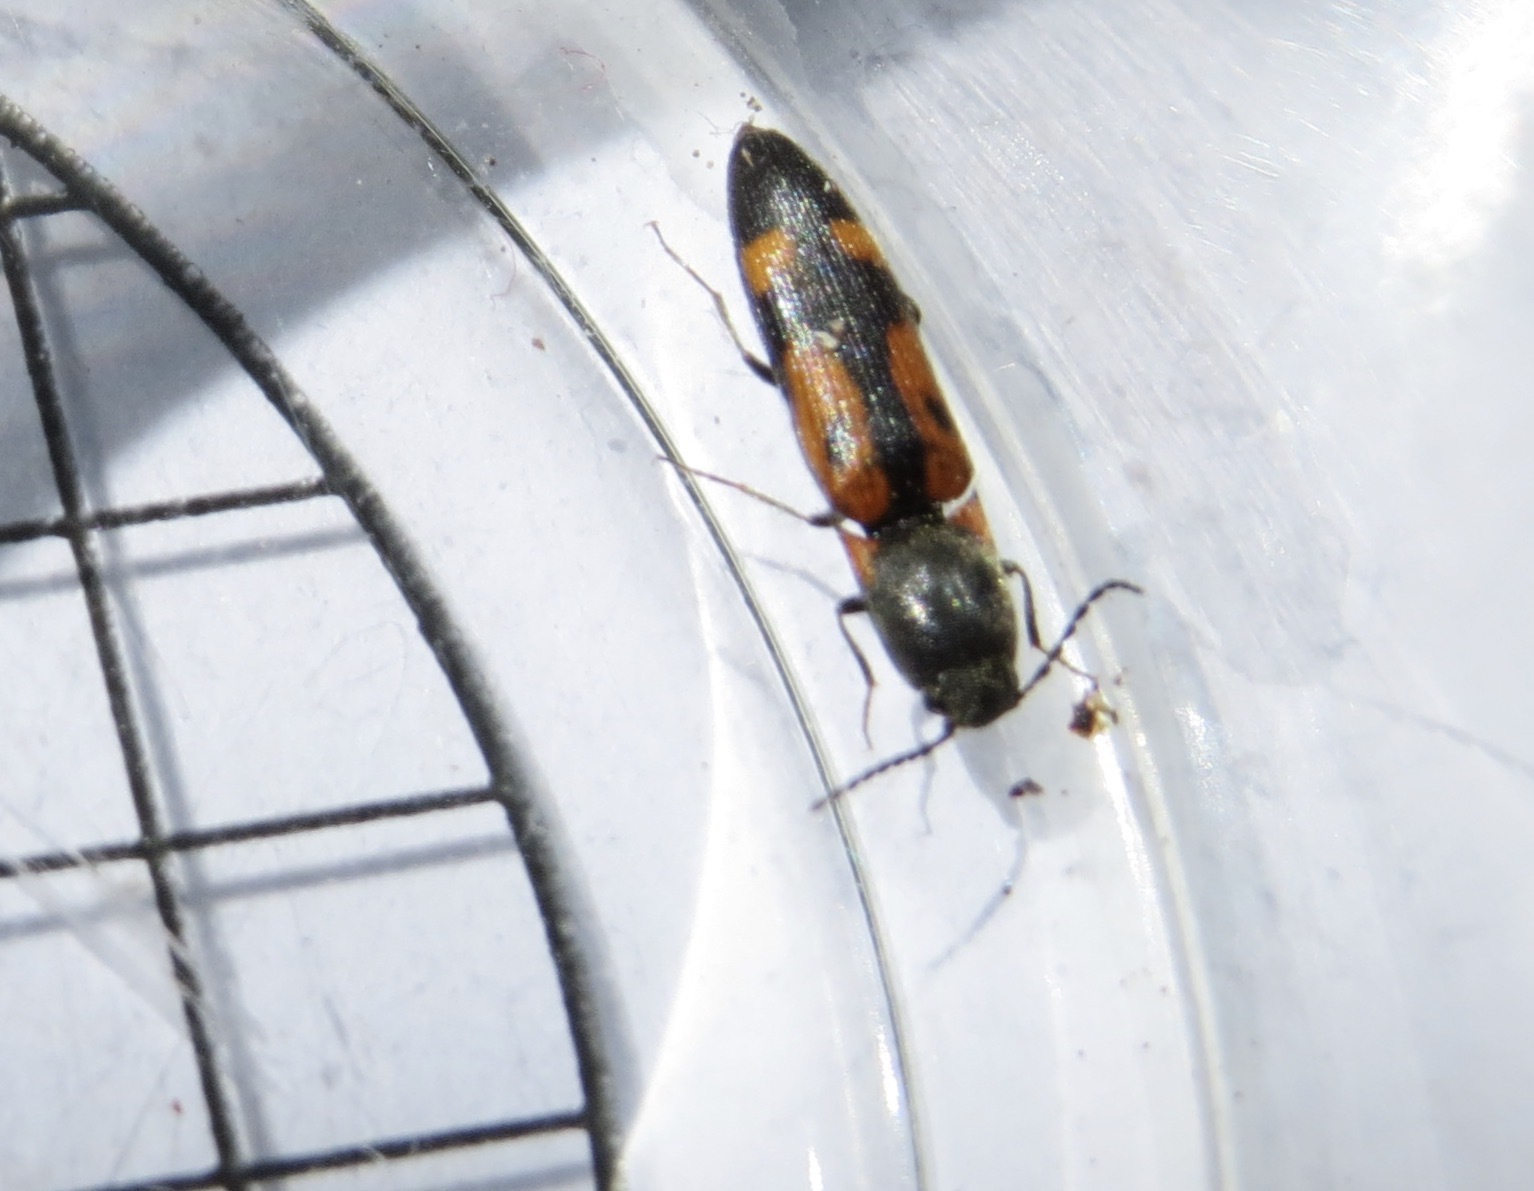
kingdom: Animalia
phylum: Arthropoda
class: Insecta
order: Coleoptera
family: Elateridae
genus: Megapenthes
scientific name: Megapenthes
